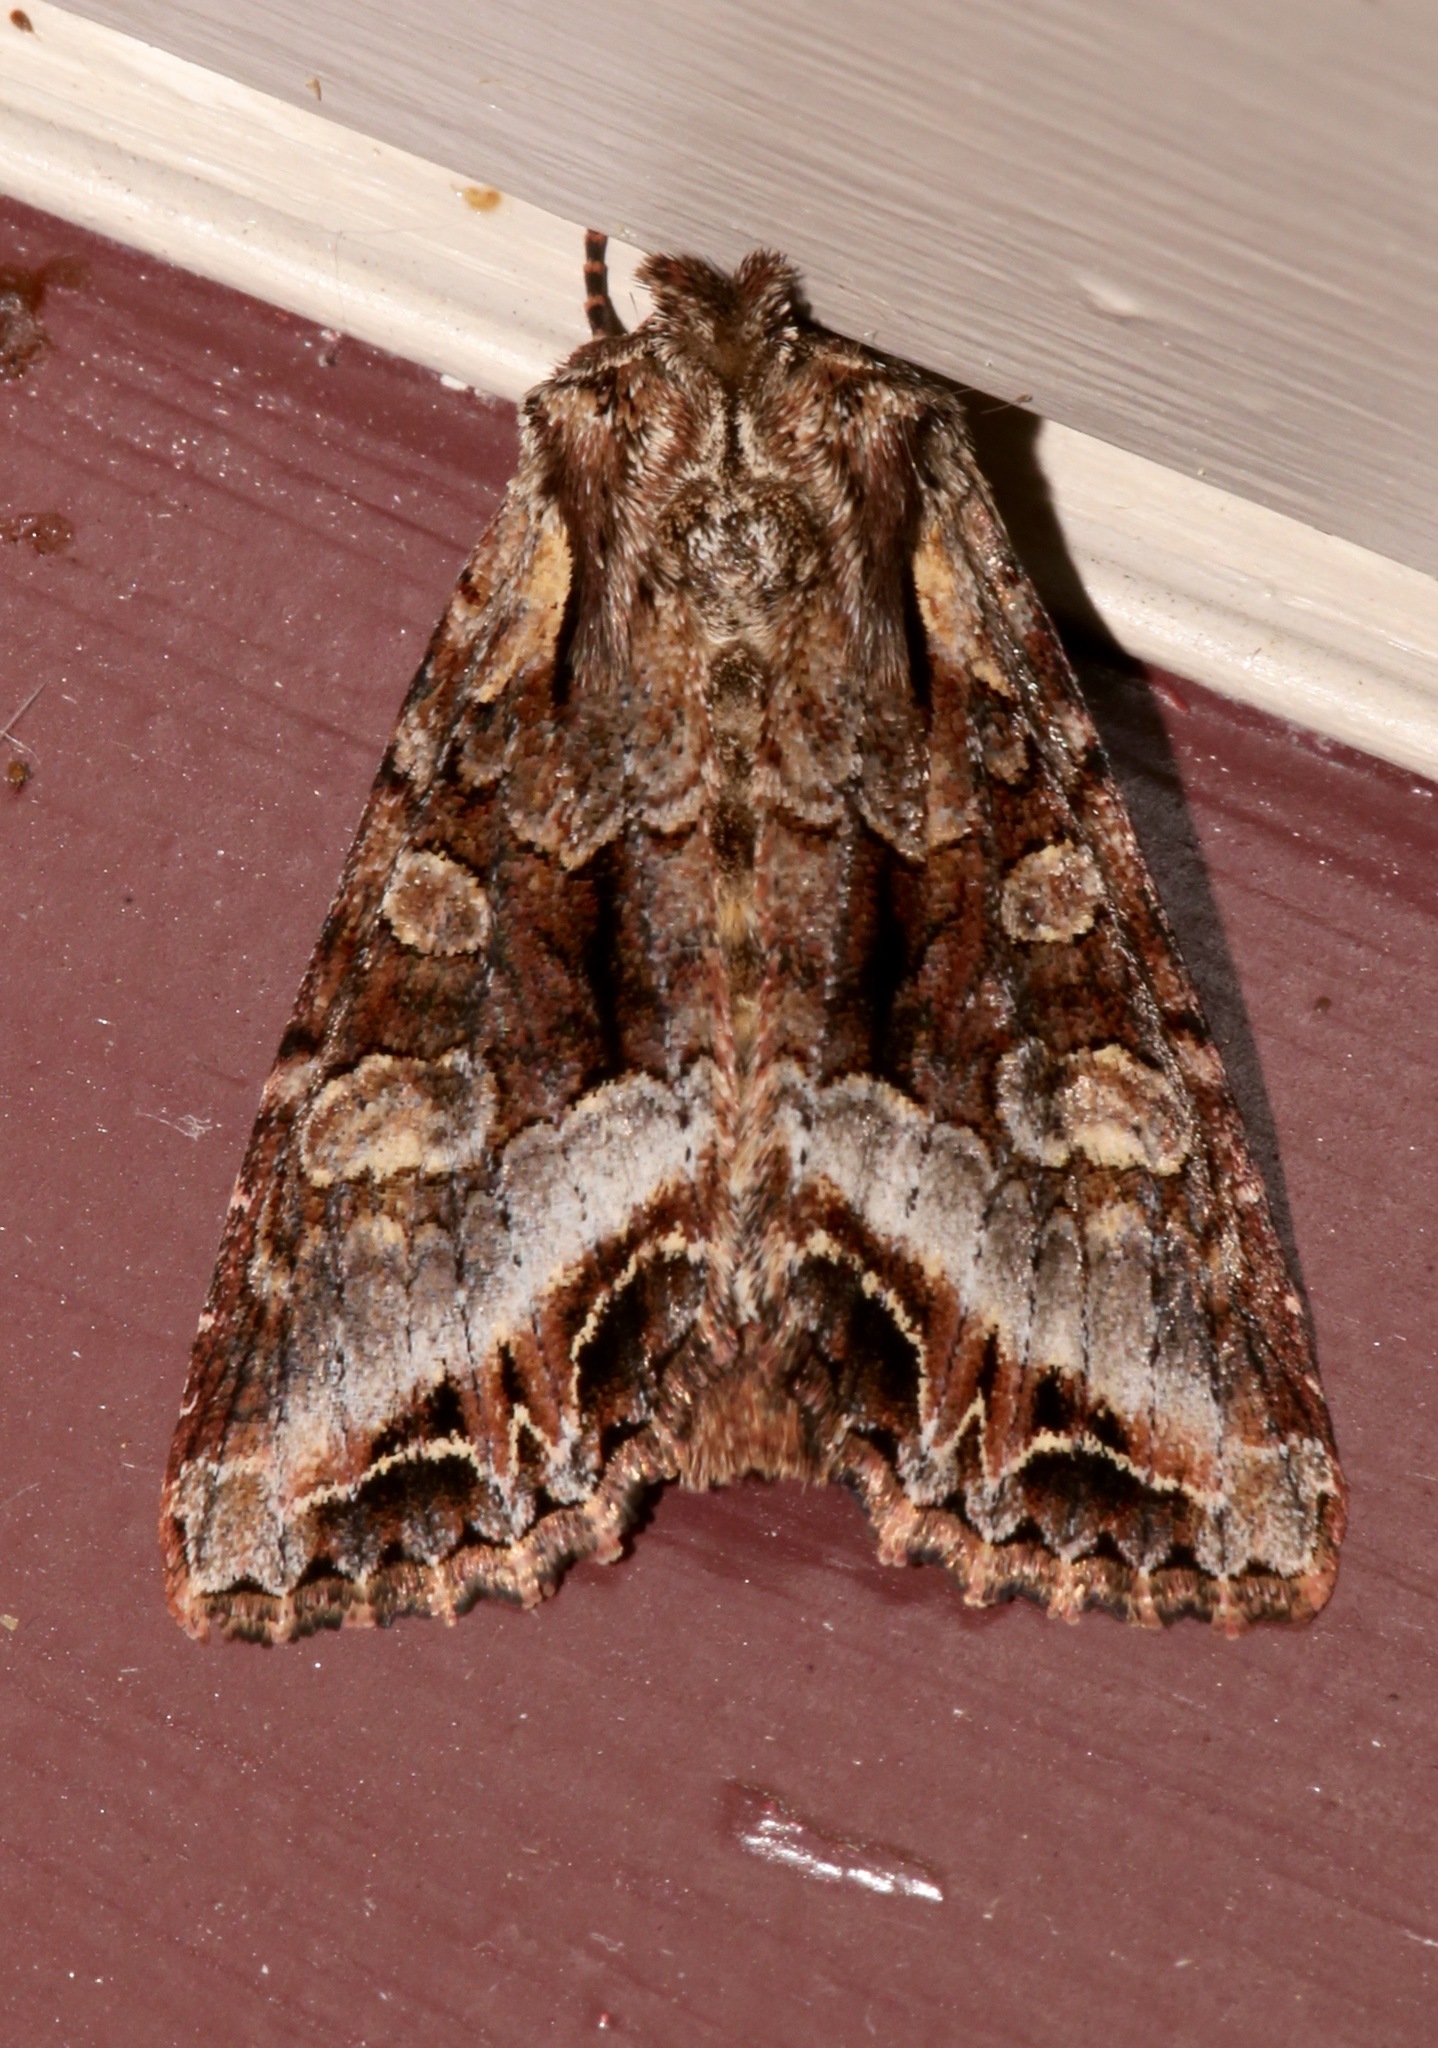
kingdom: Animalia
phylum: Arthropoda
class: Insecta
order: Lepidoptera
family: Noctuidae
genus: Lacanobia
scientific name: Lacanobia grandis
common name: Grand arches moth
